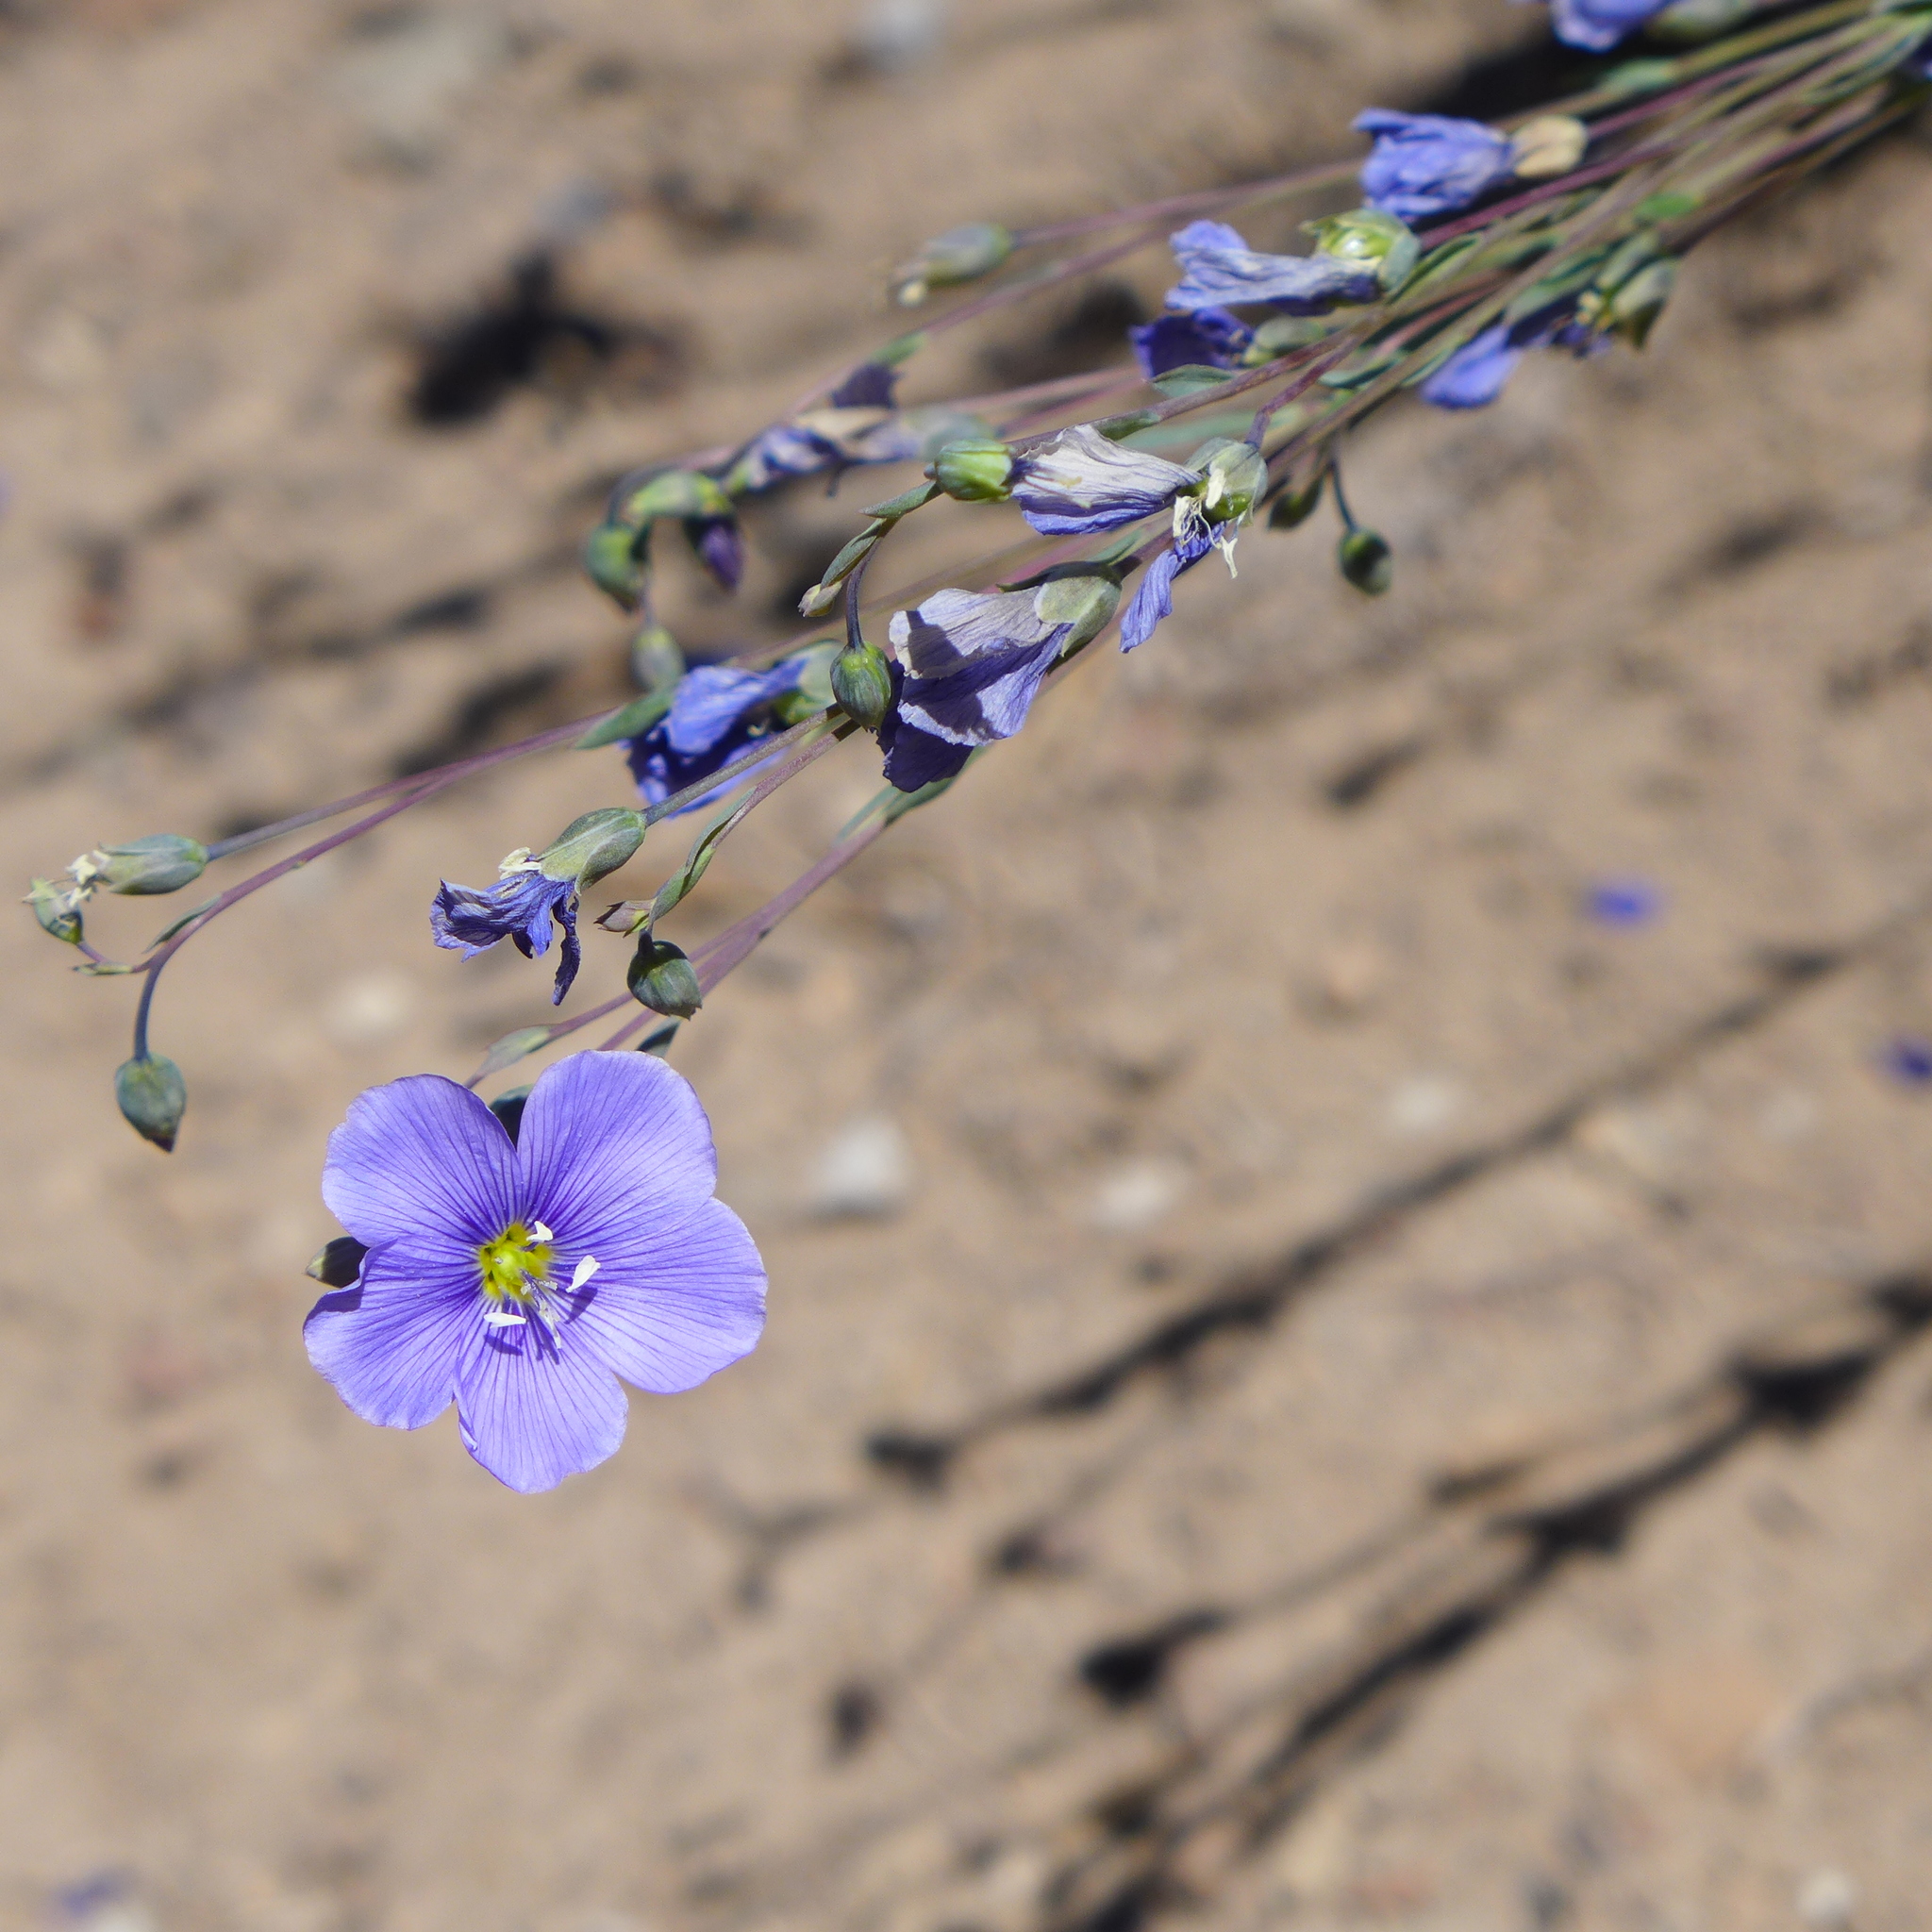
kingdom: Plantae
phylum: Tracheophyta
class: Magnoliopsida
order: Malpighiales
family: Linaceae
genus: Linum
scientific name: Linum lewisii
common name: Prairie flax
